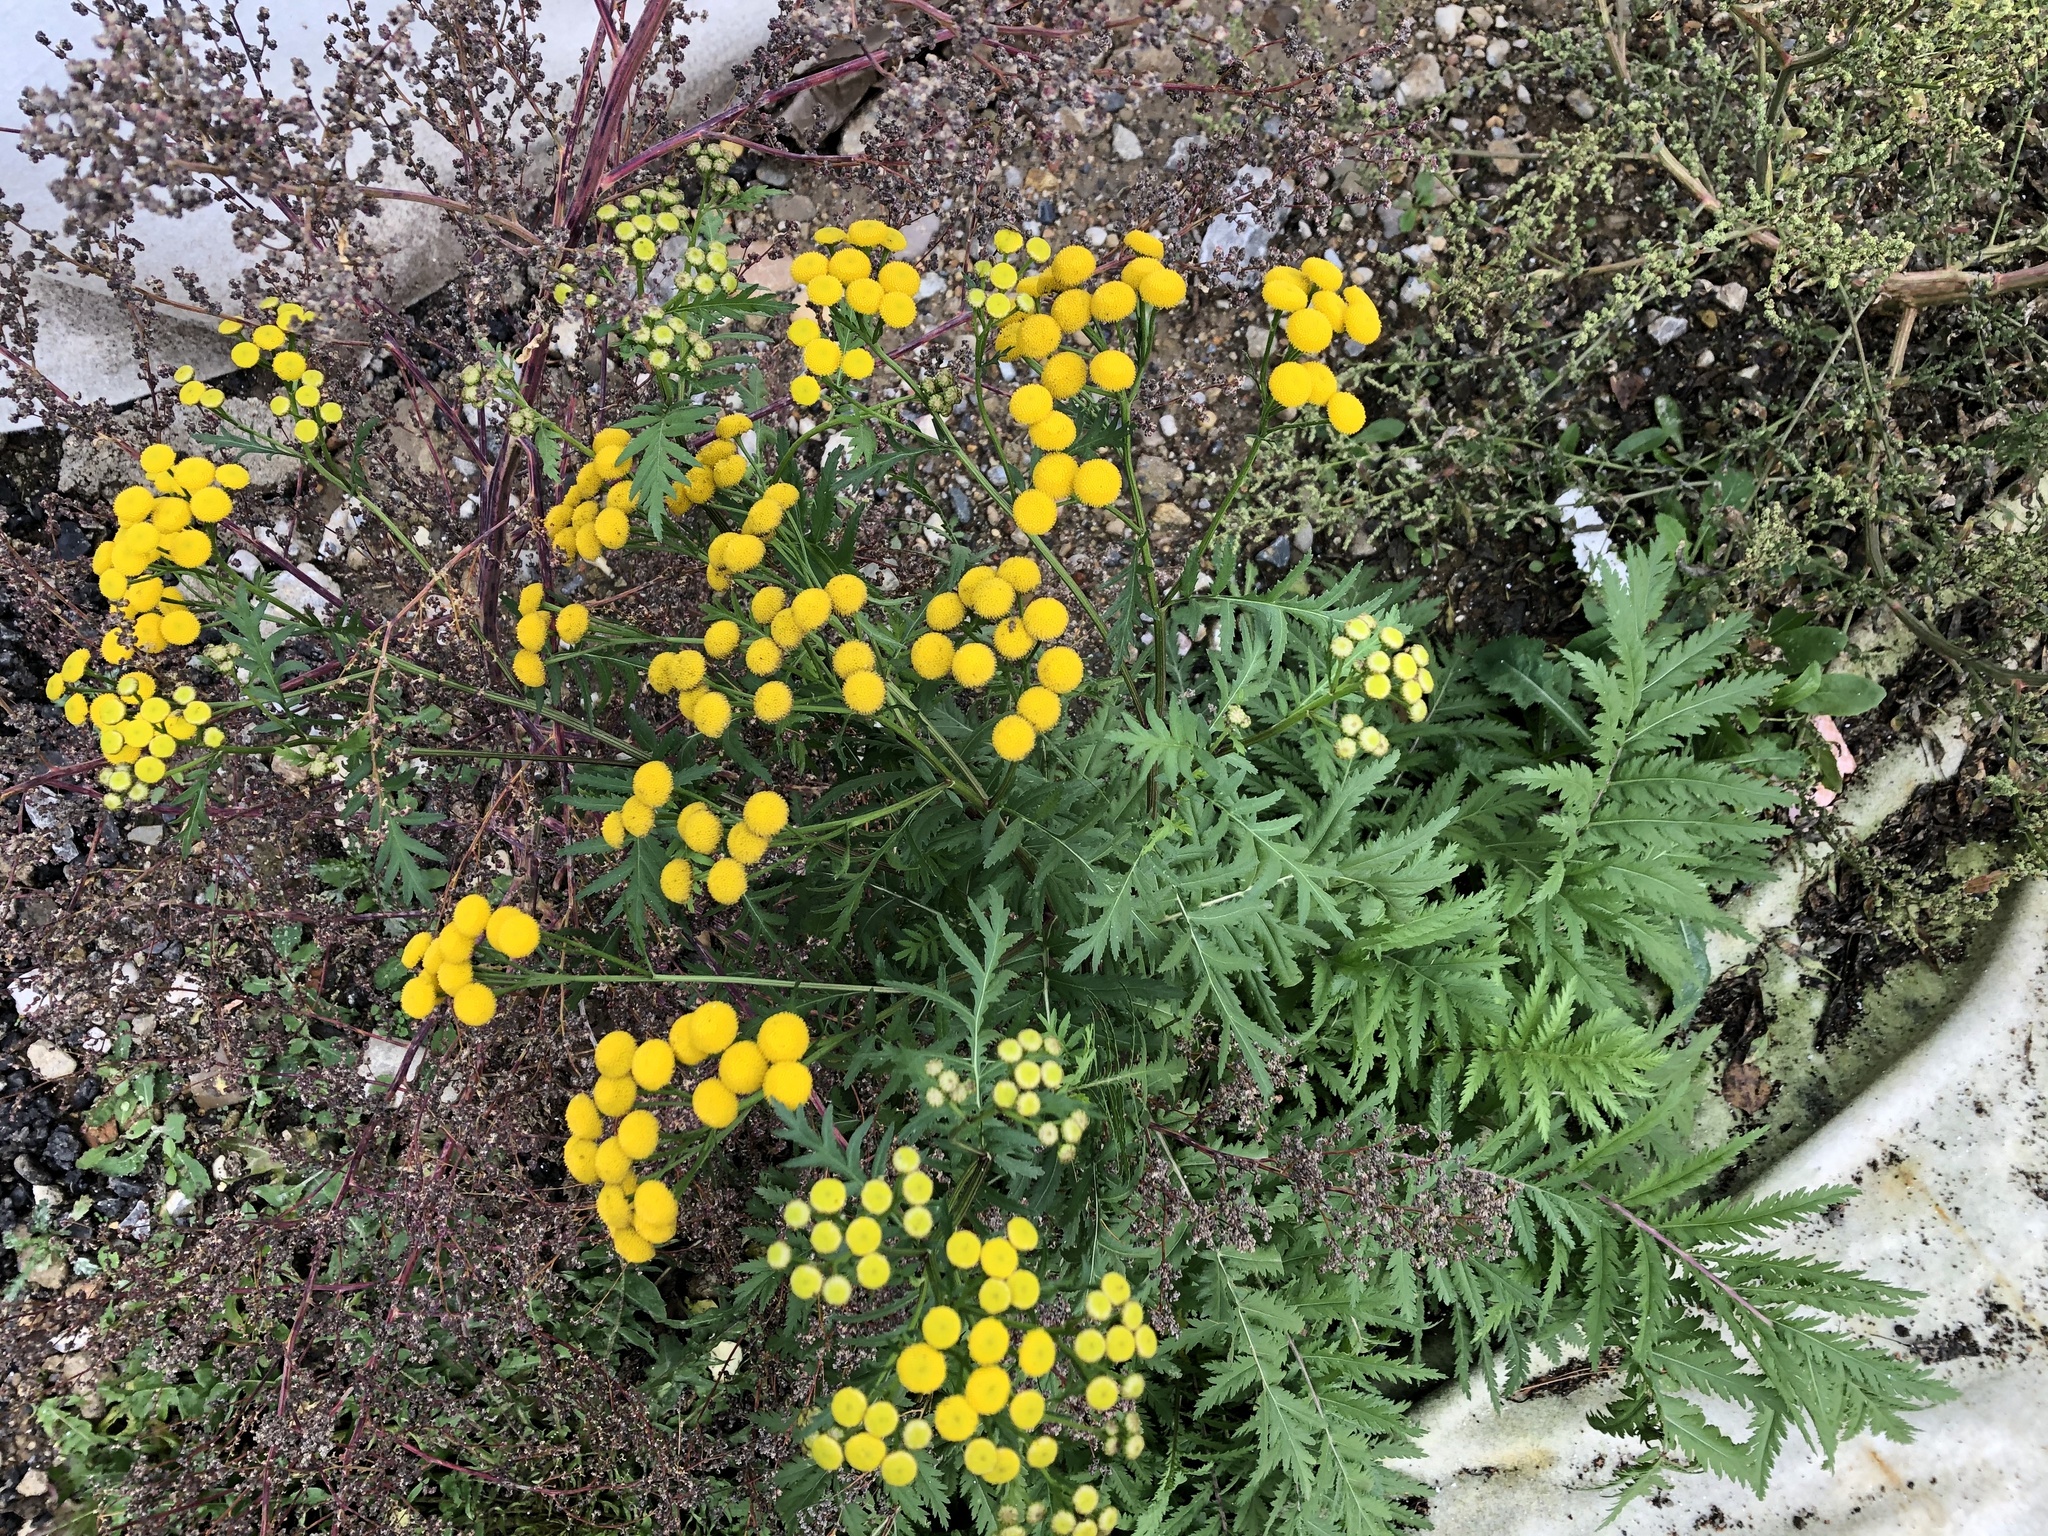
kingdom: Plantae
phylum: Tracheophyta
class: Magnoliopsida
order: Asterales
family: Asteraceae
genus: Tanacetum
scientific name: Tanacetum vulgare
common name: Common tansy
